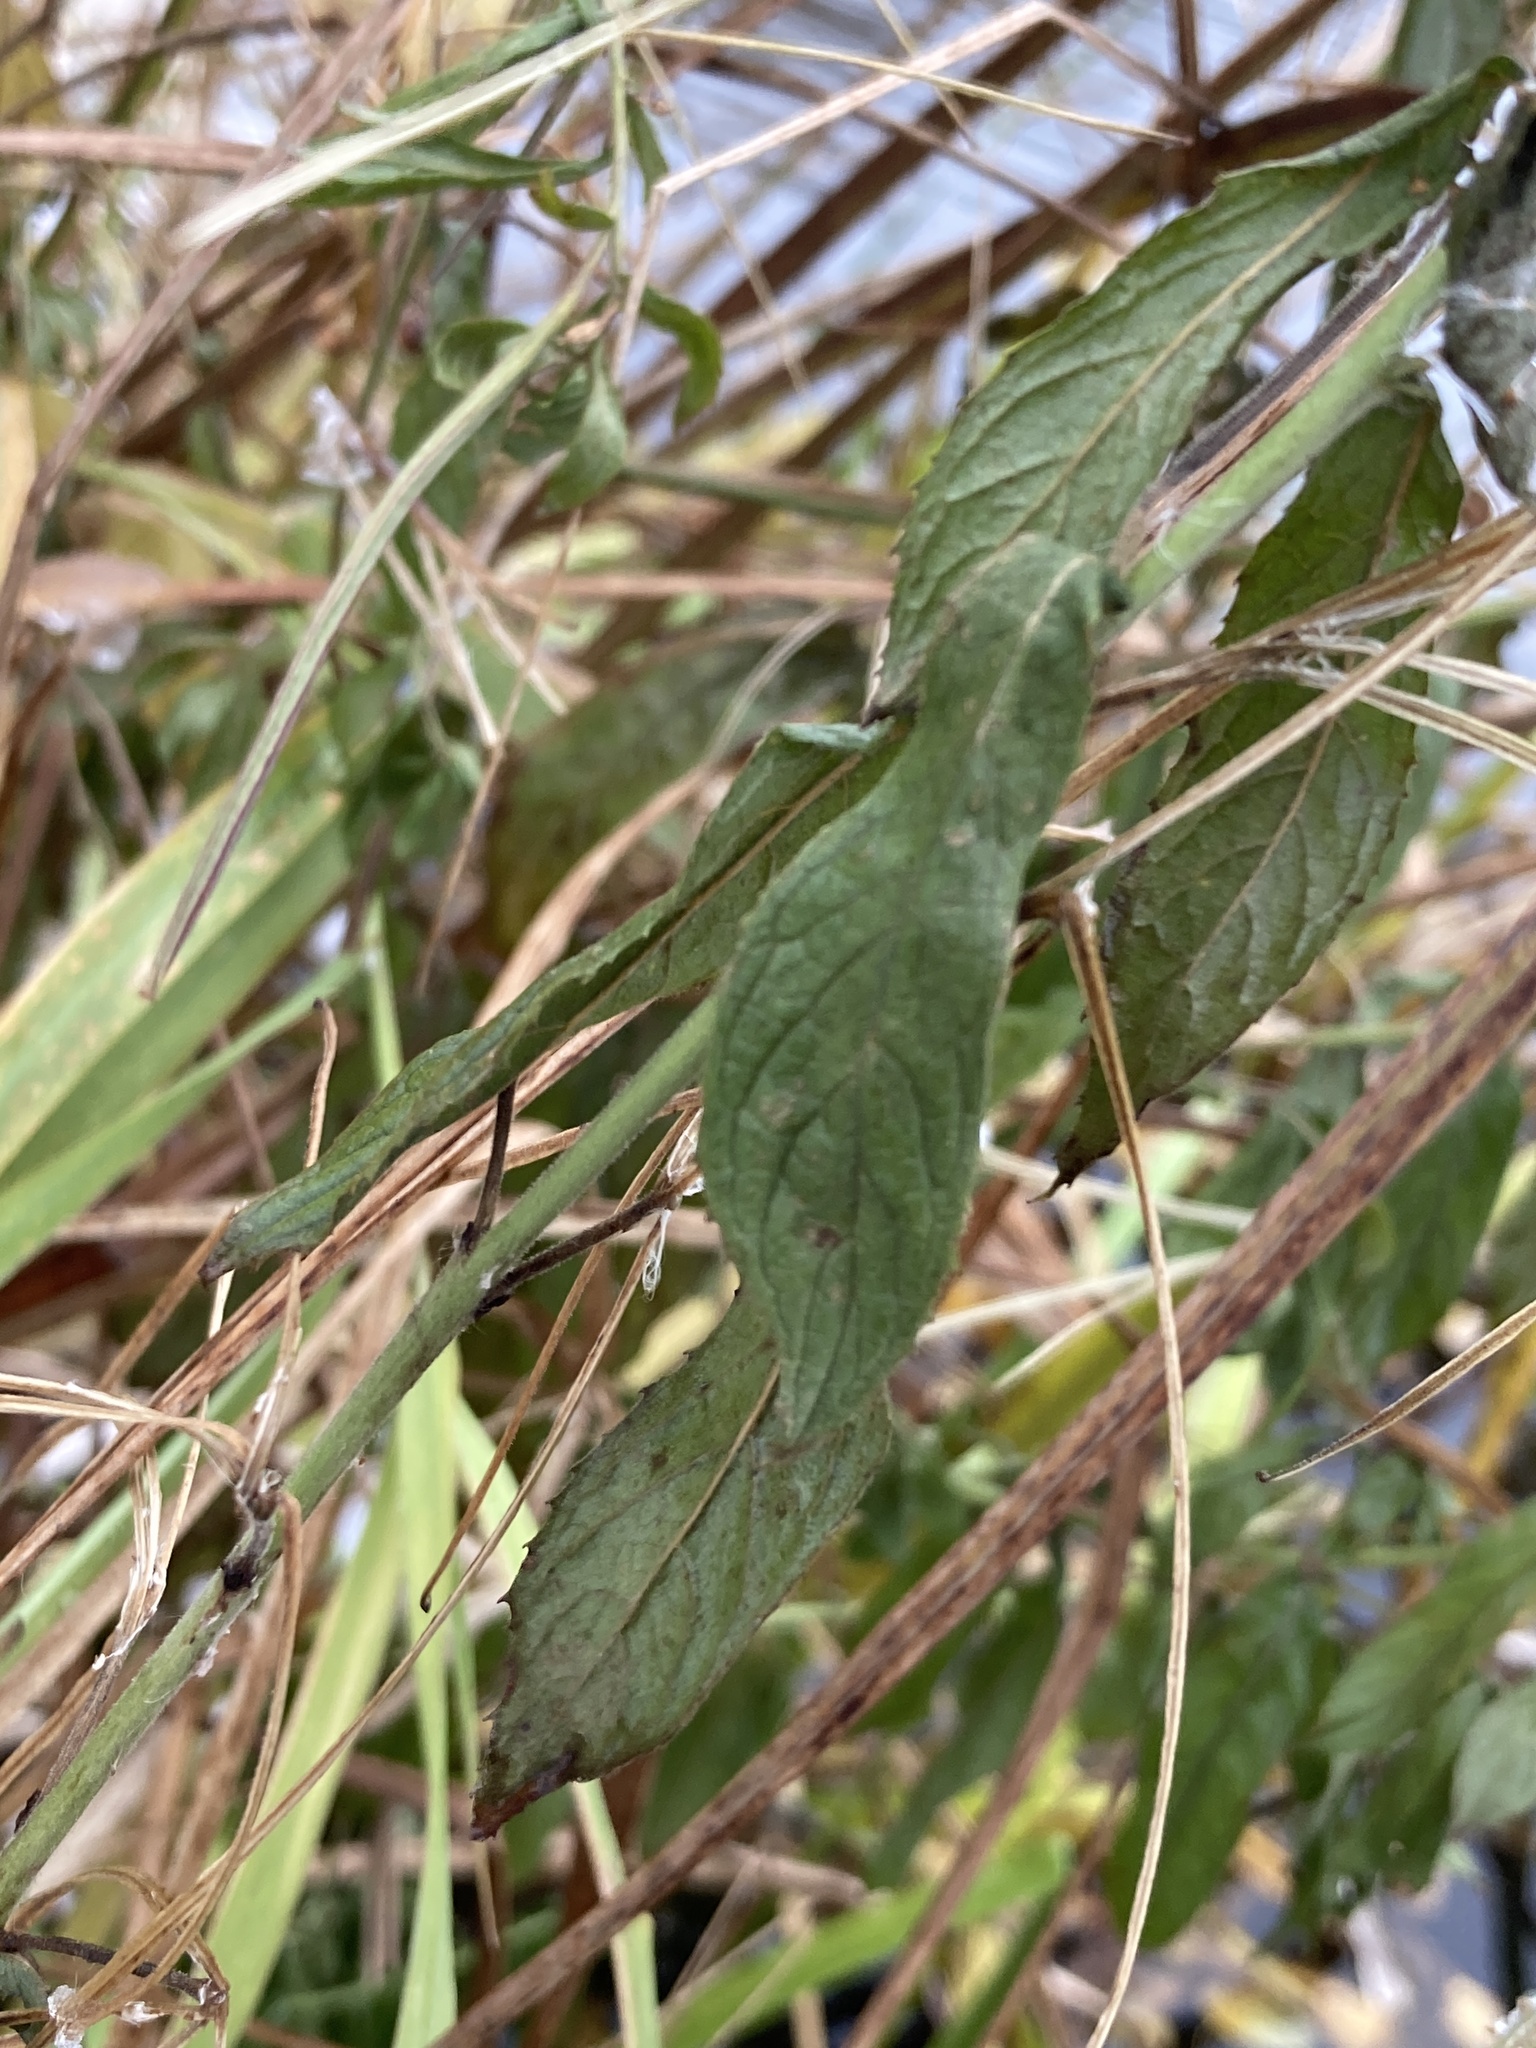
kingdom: Plantae
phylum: Tracheophyta
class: Magnoliopsida
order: Myrtales
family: Onagraceae
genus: Epilobium
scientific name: Epilobium hirsutum
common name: Great willowherb
